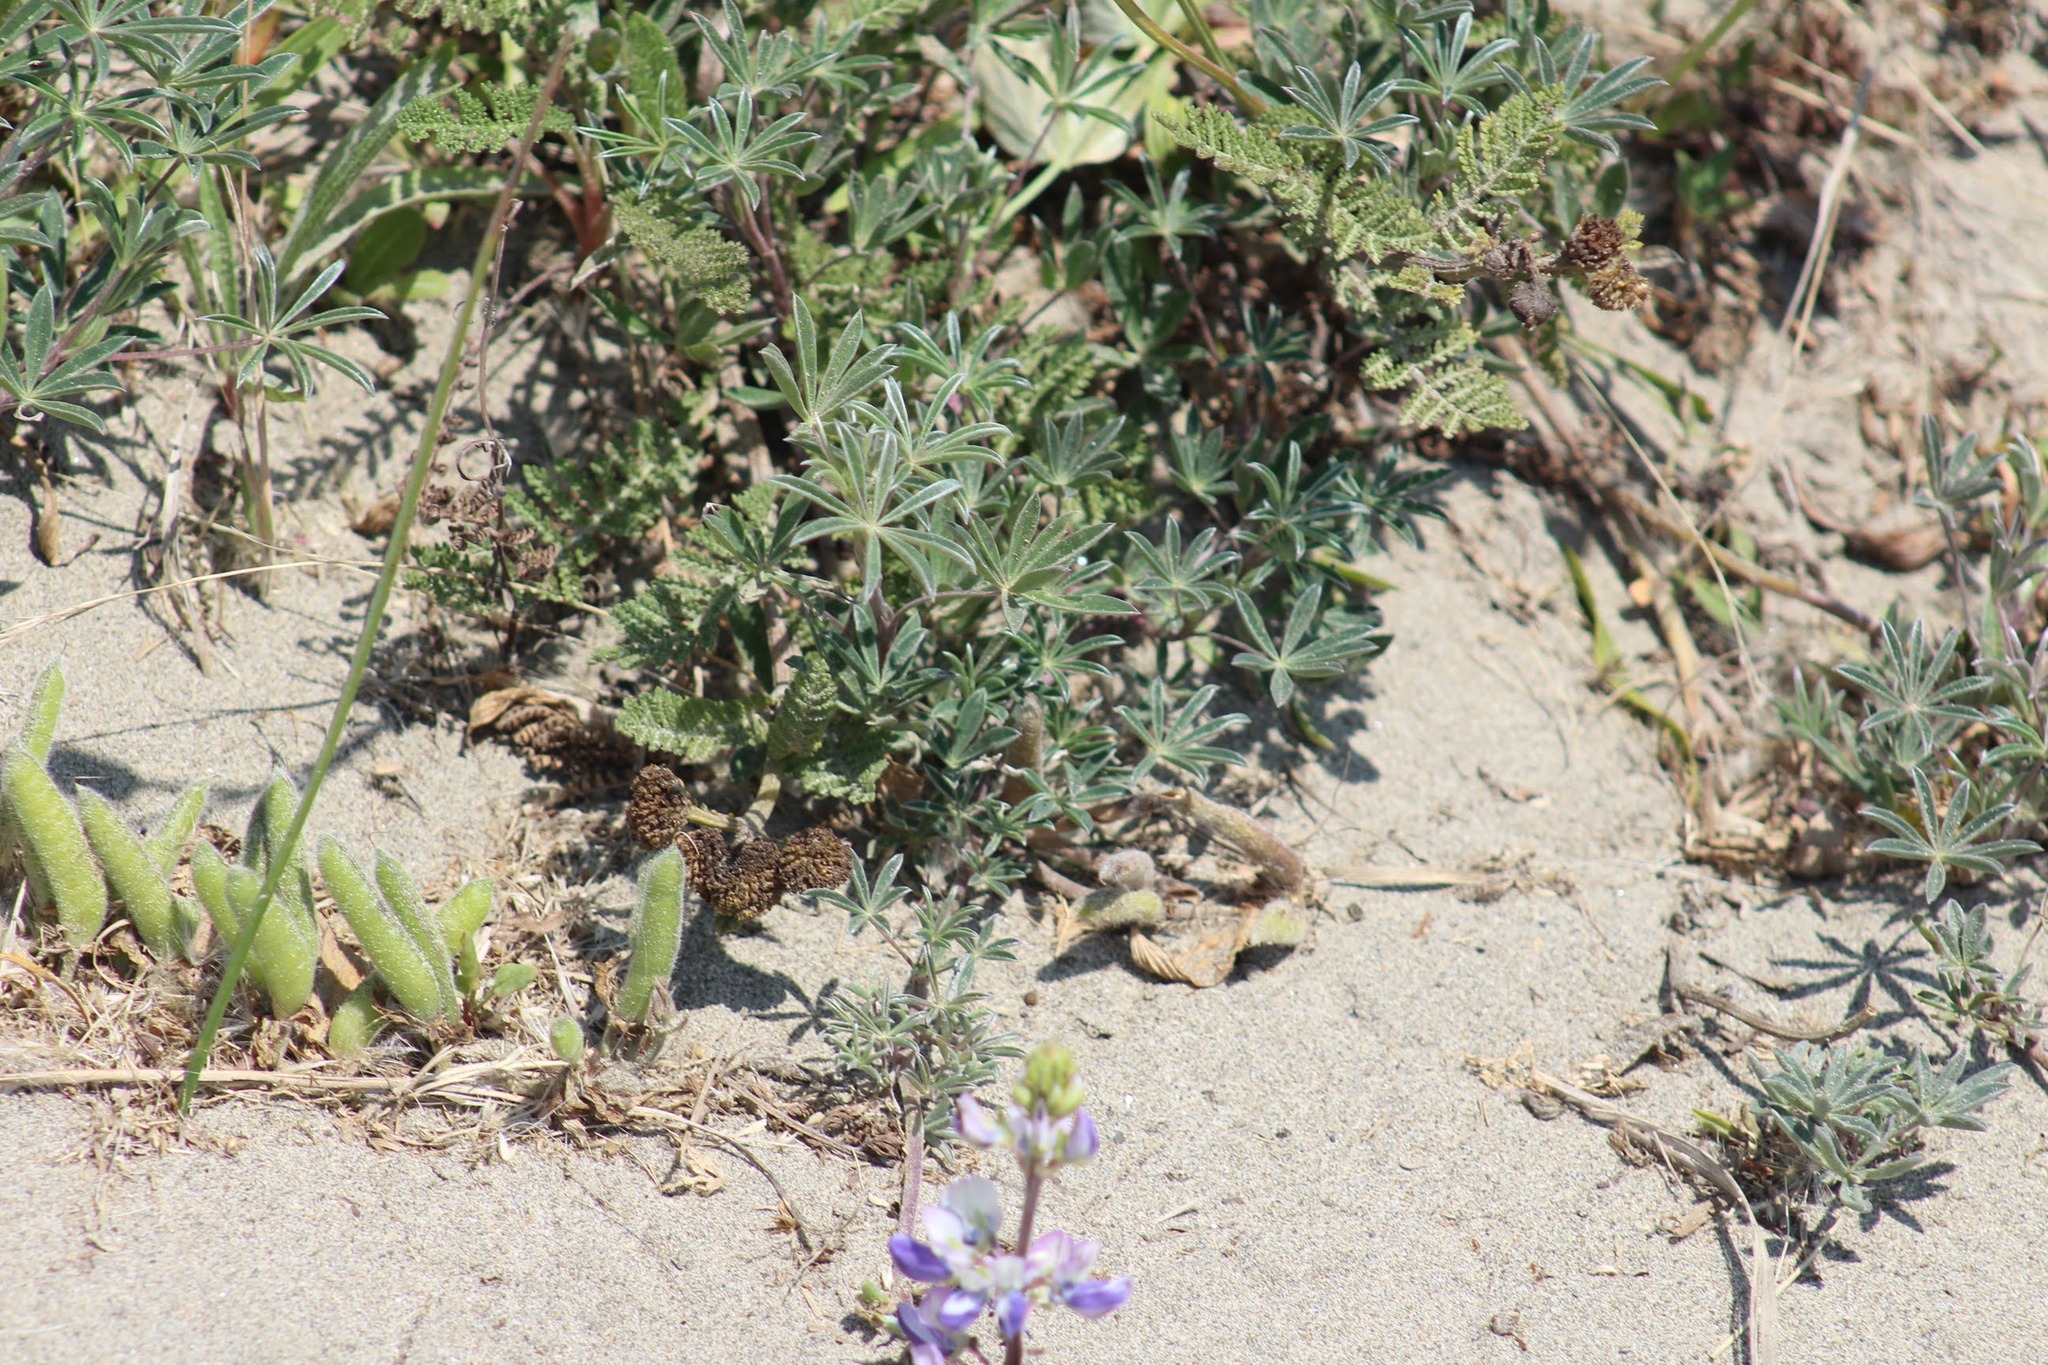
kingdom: Plantae
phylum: Tracheophyta
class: Magnoliopsida
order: Fabales
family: Fabaceae
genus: Lupinus
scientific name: Lupinus littoralis
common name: Seashore lupine
